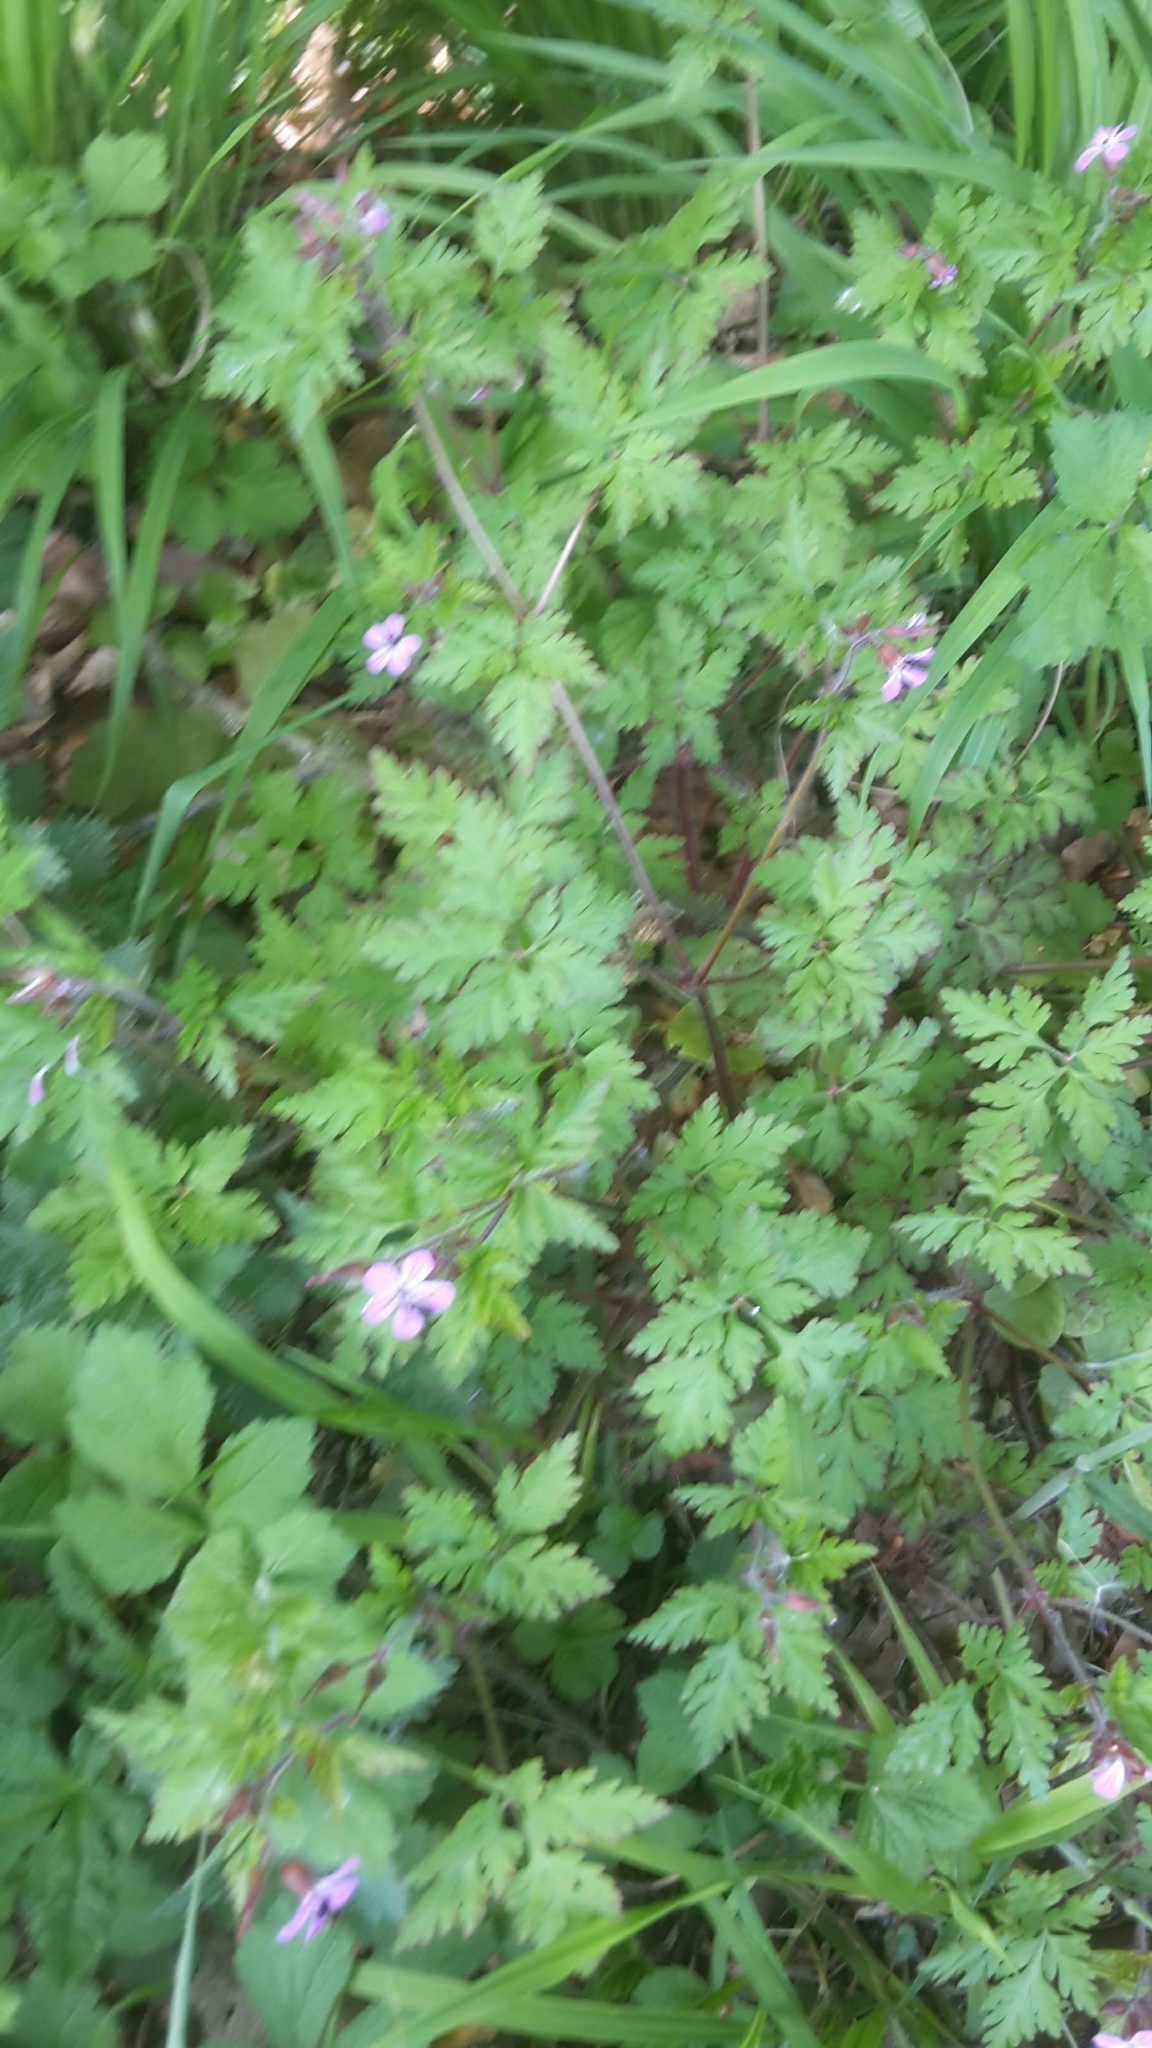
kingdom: Plantae
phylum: Tracheophyta
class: Magnoliopsida
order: Geraniales
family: Geraniaceae
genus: Geranium
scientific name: Geranium robertianum
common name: Herb-robert
